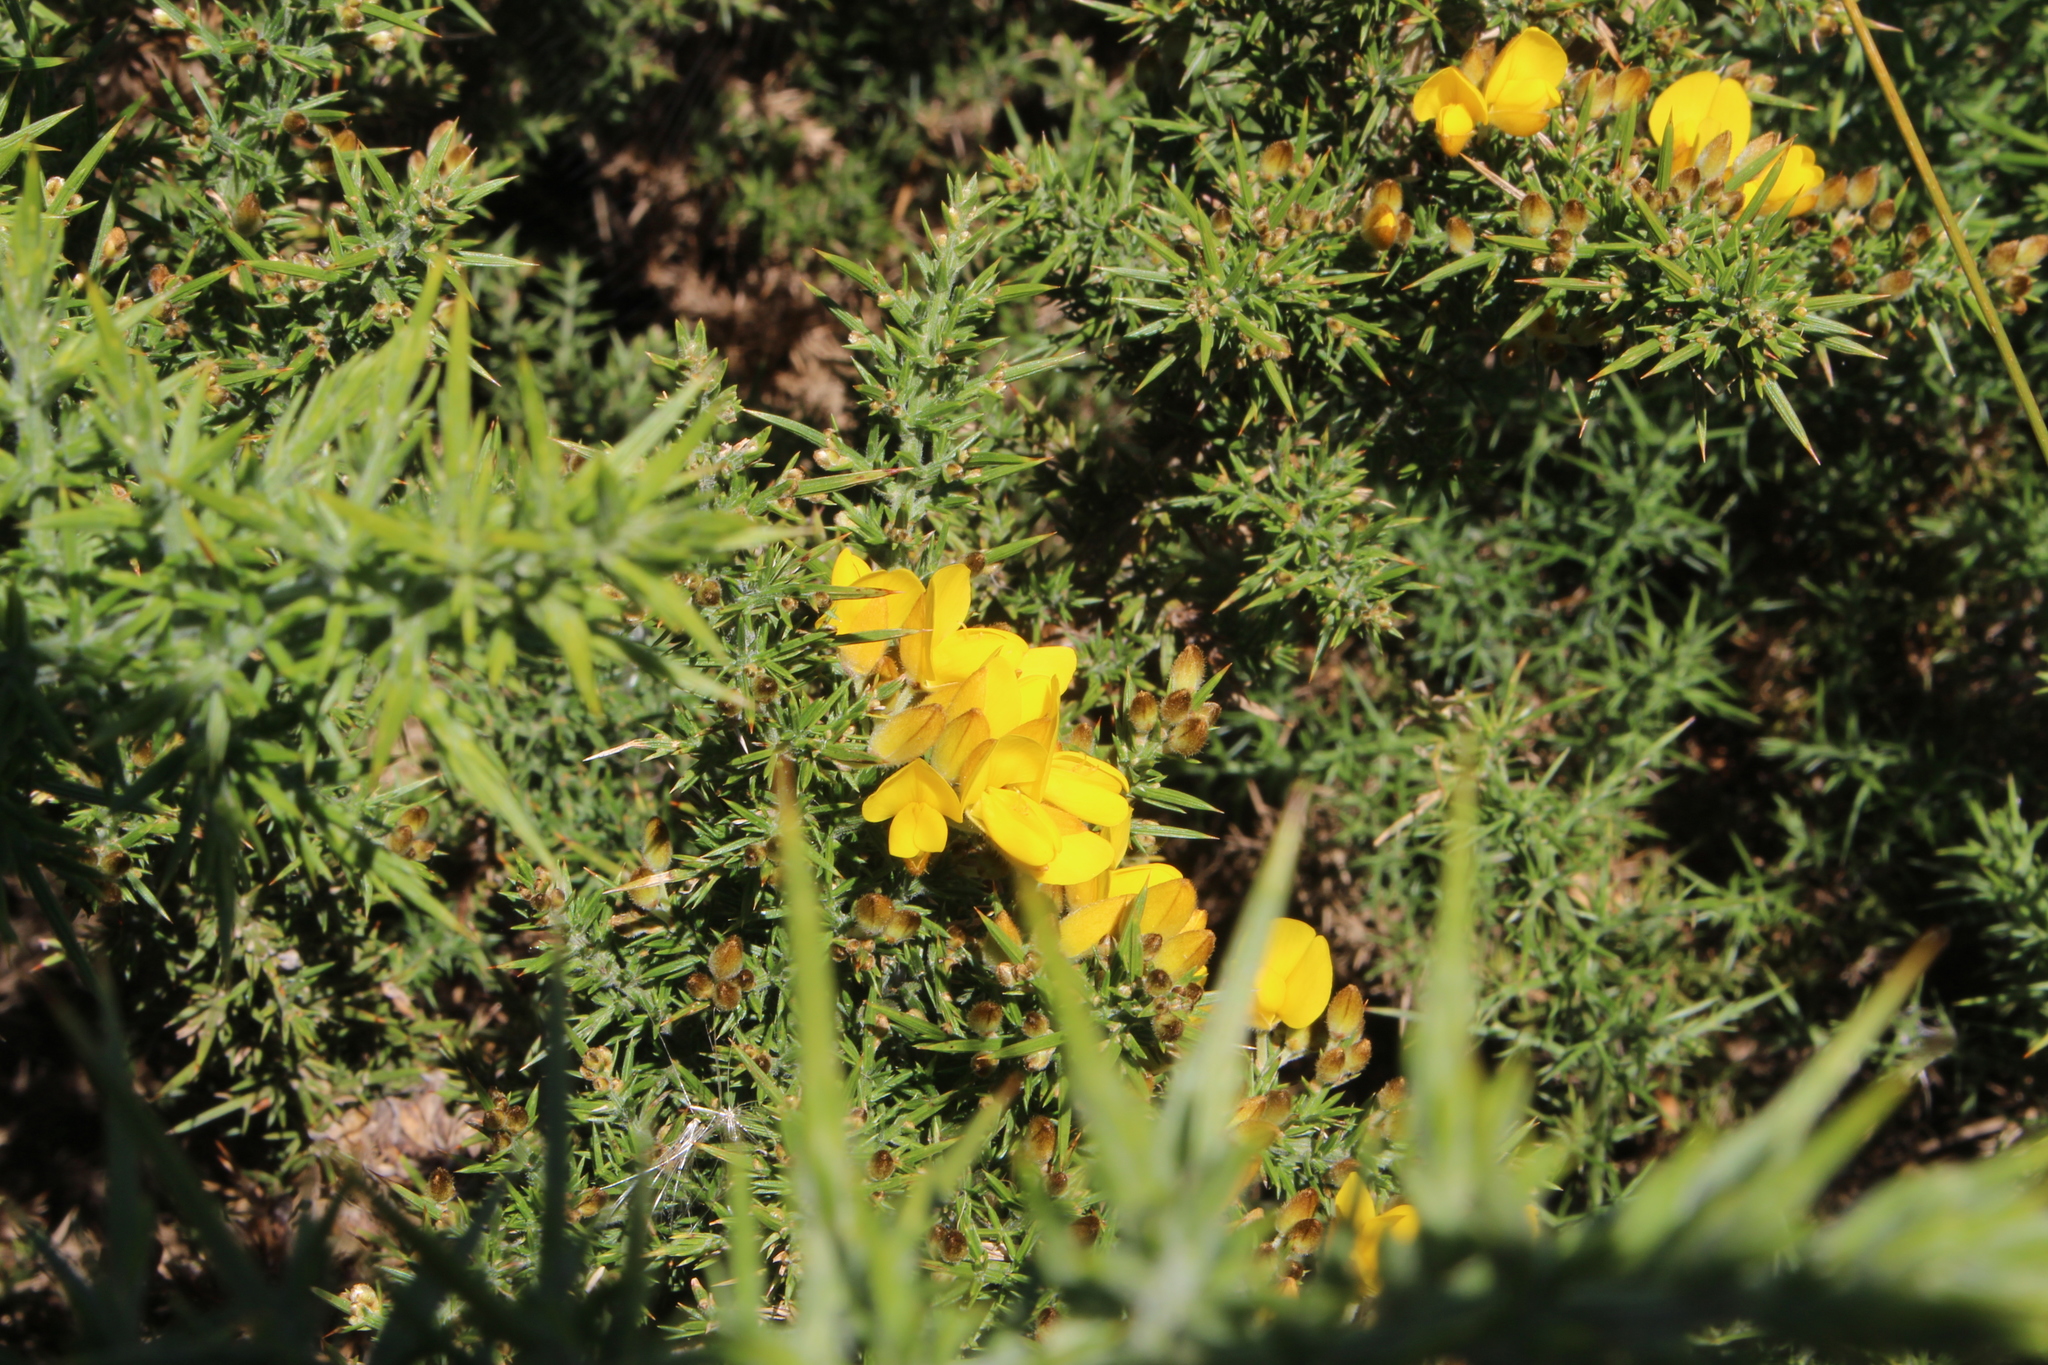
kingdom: Plantae
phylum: Tracheophyta
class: Magnoliopsida
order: Fabales
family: Fabaceae
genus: Ulex
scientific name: Ulex europaeus
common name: Common gorse
